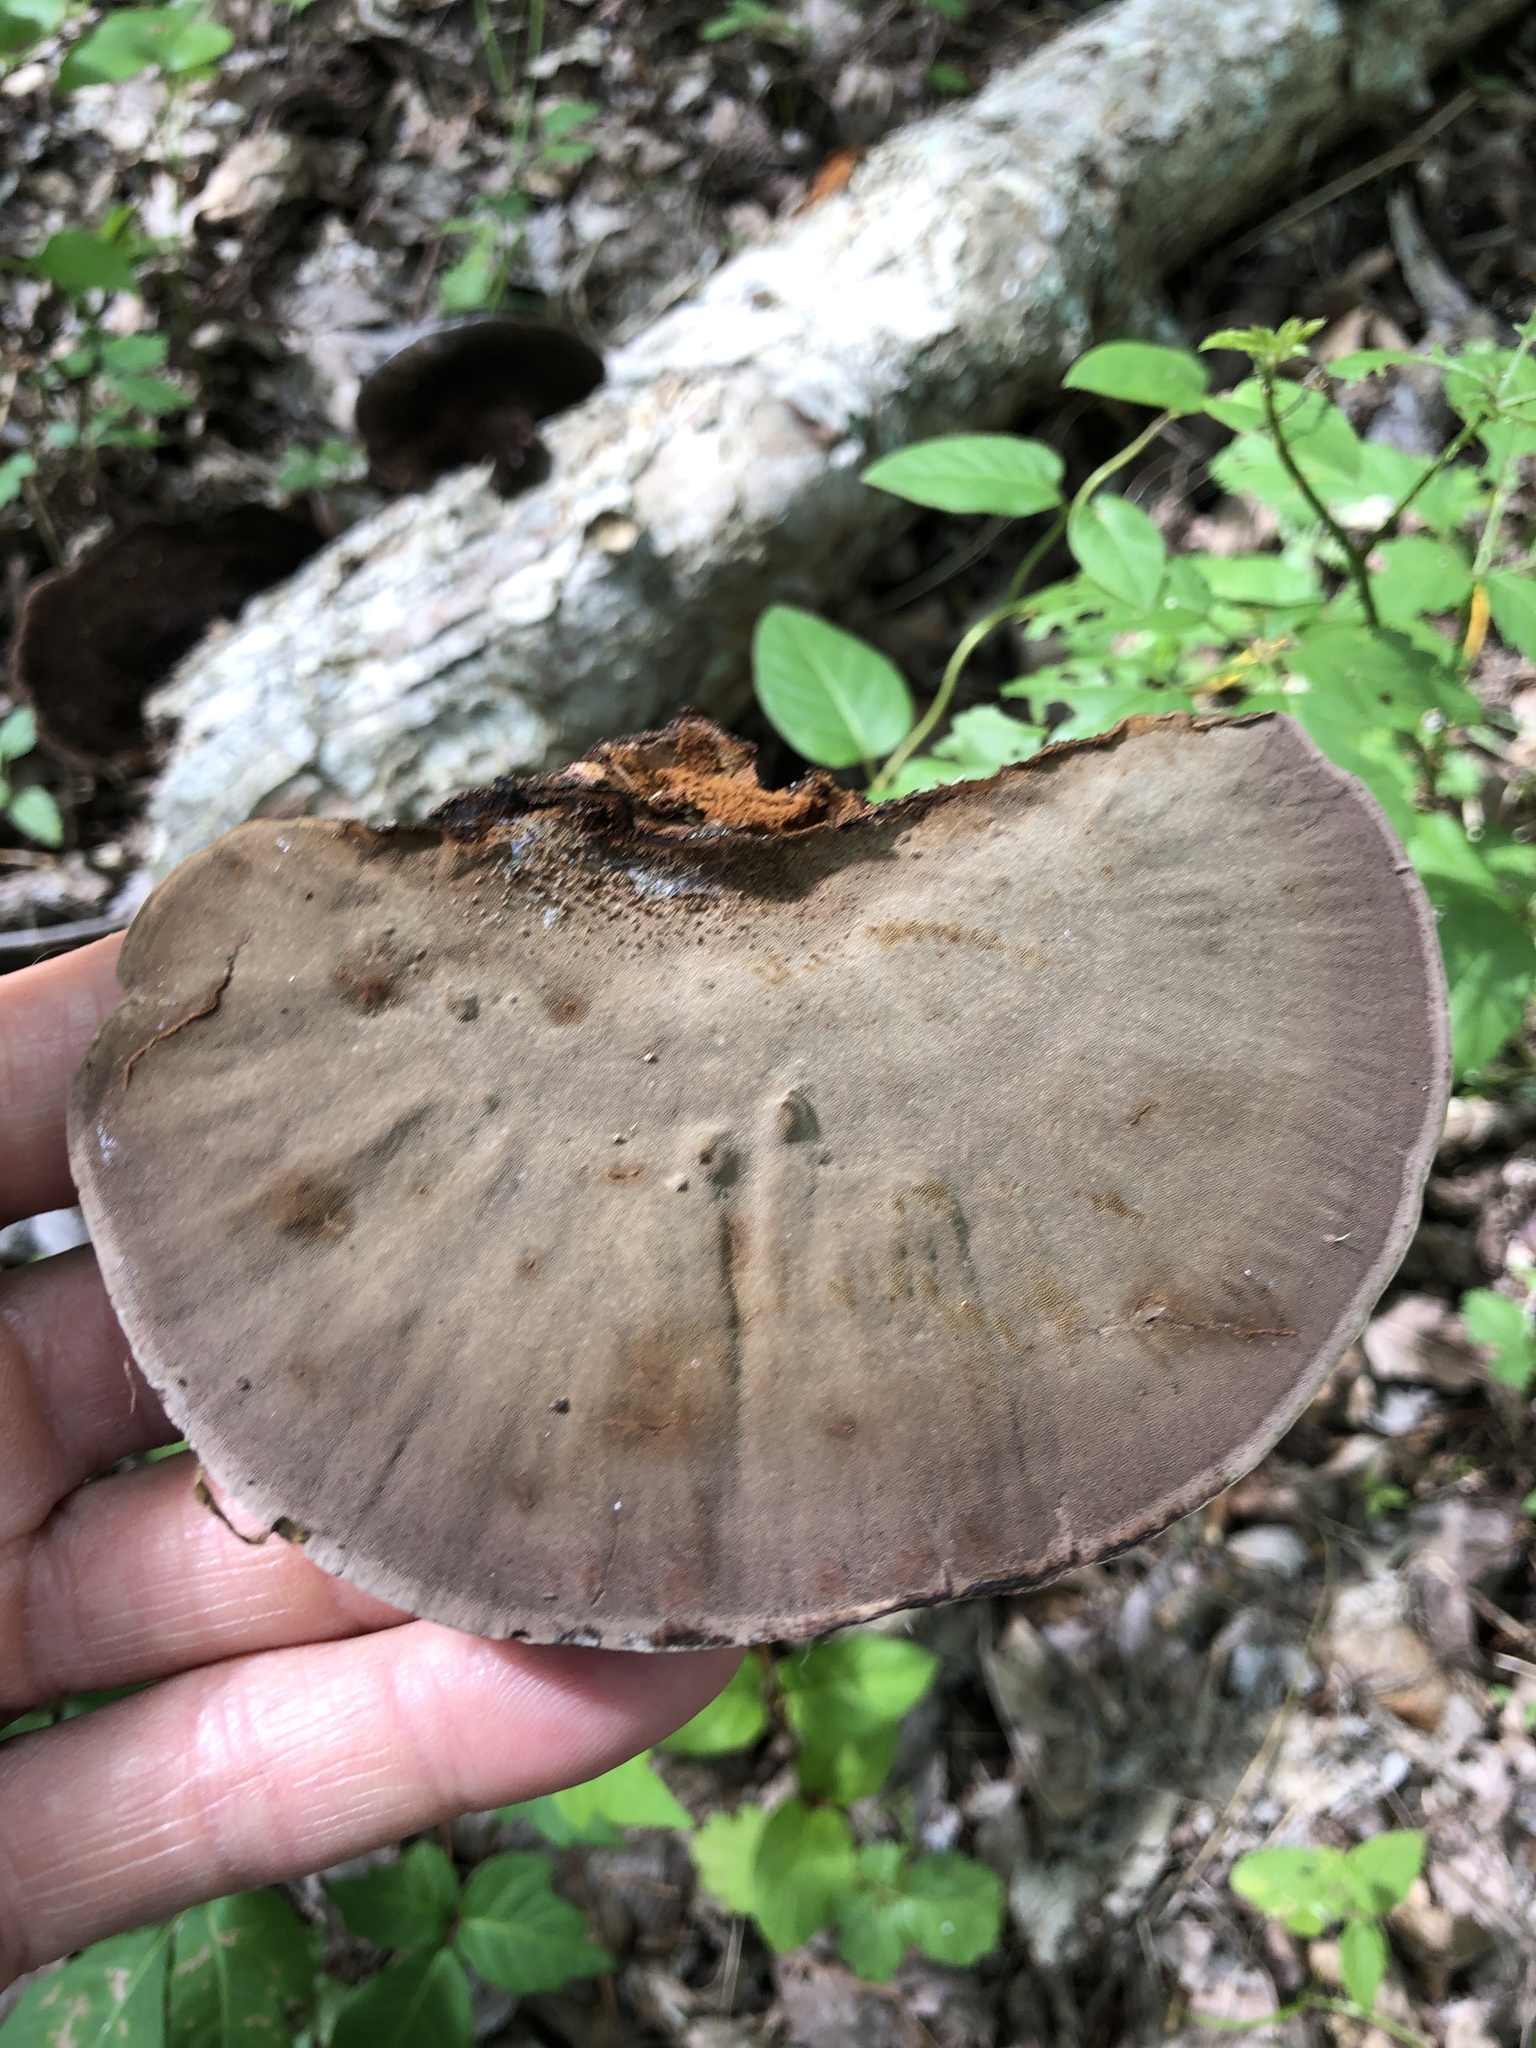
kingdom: Fungi
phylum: Basidiomycota
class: Agaricomycetes
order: Polyporales
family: Cerrenaceae
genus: Cerrena
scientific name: Cerrena hydnoides
